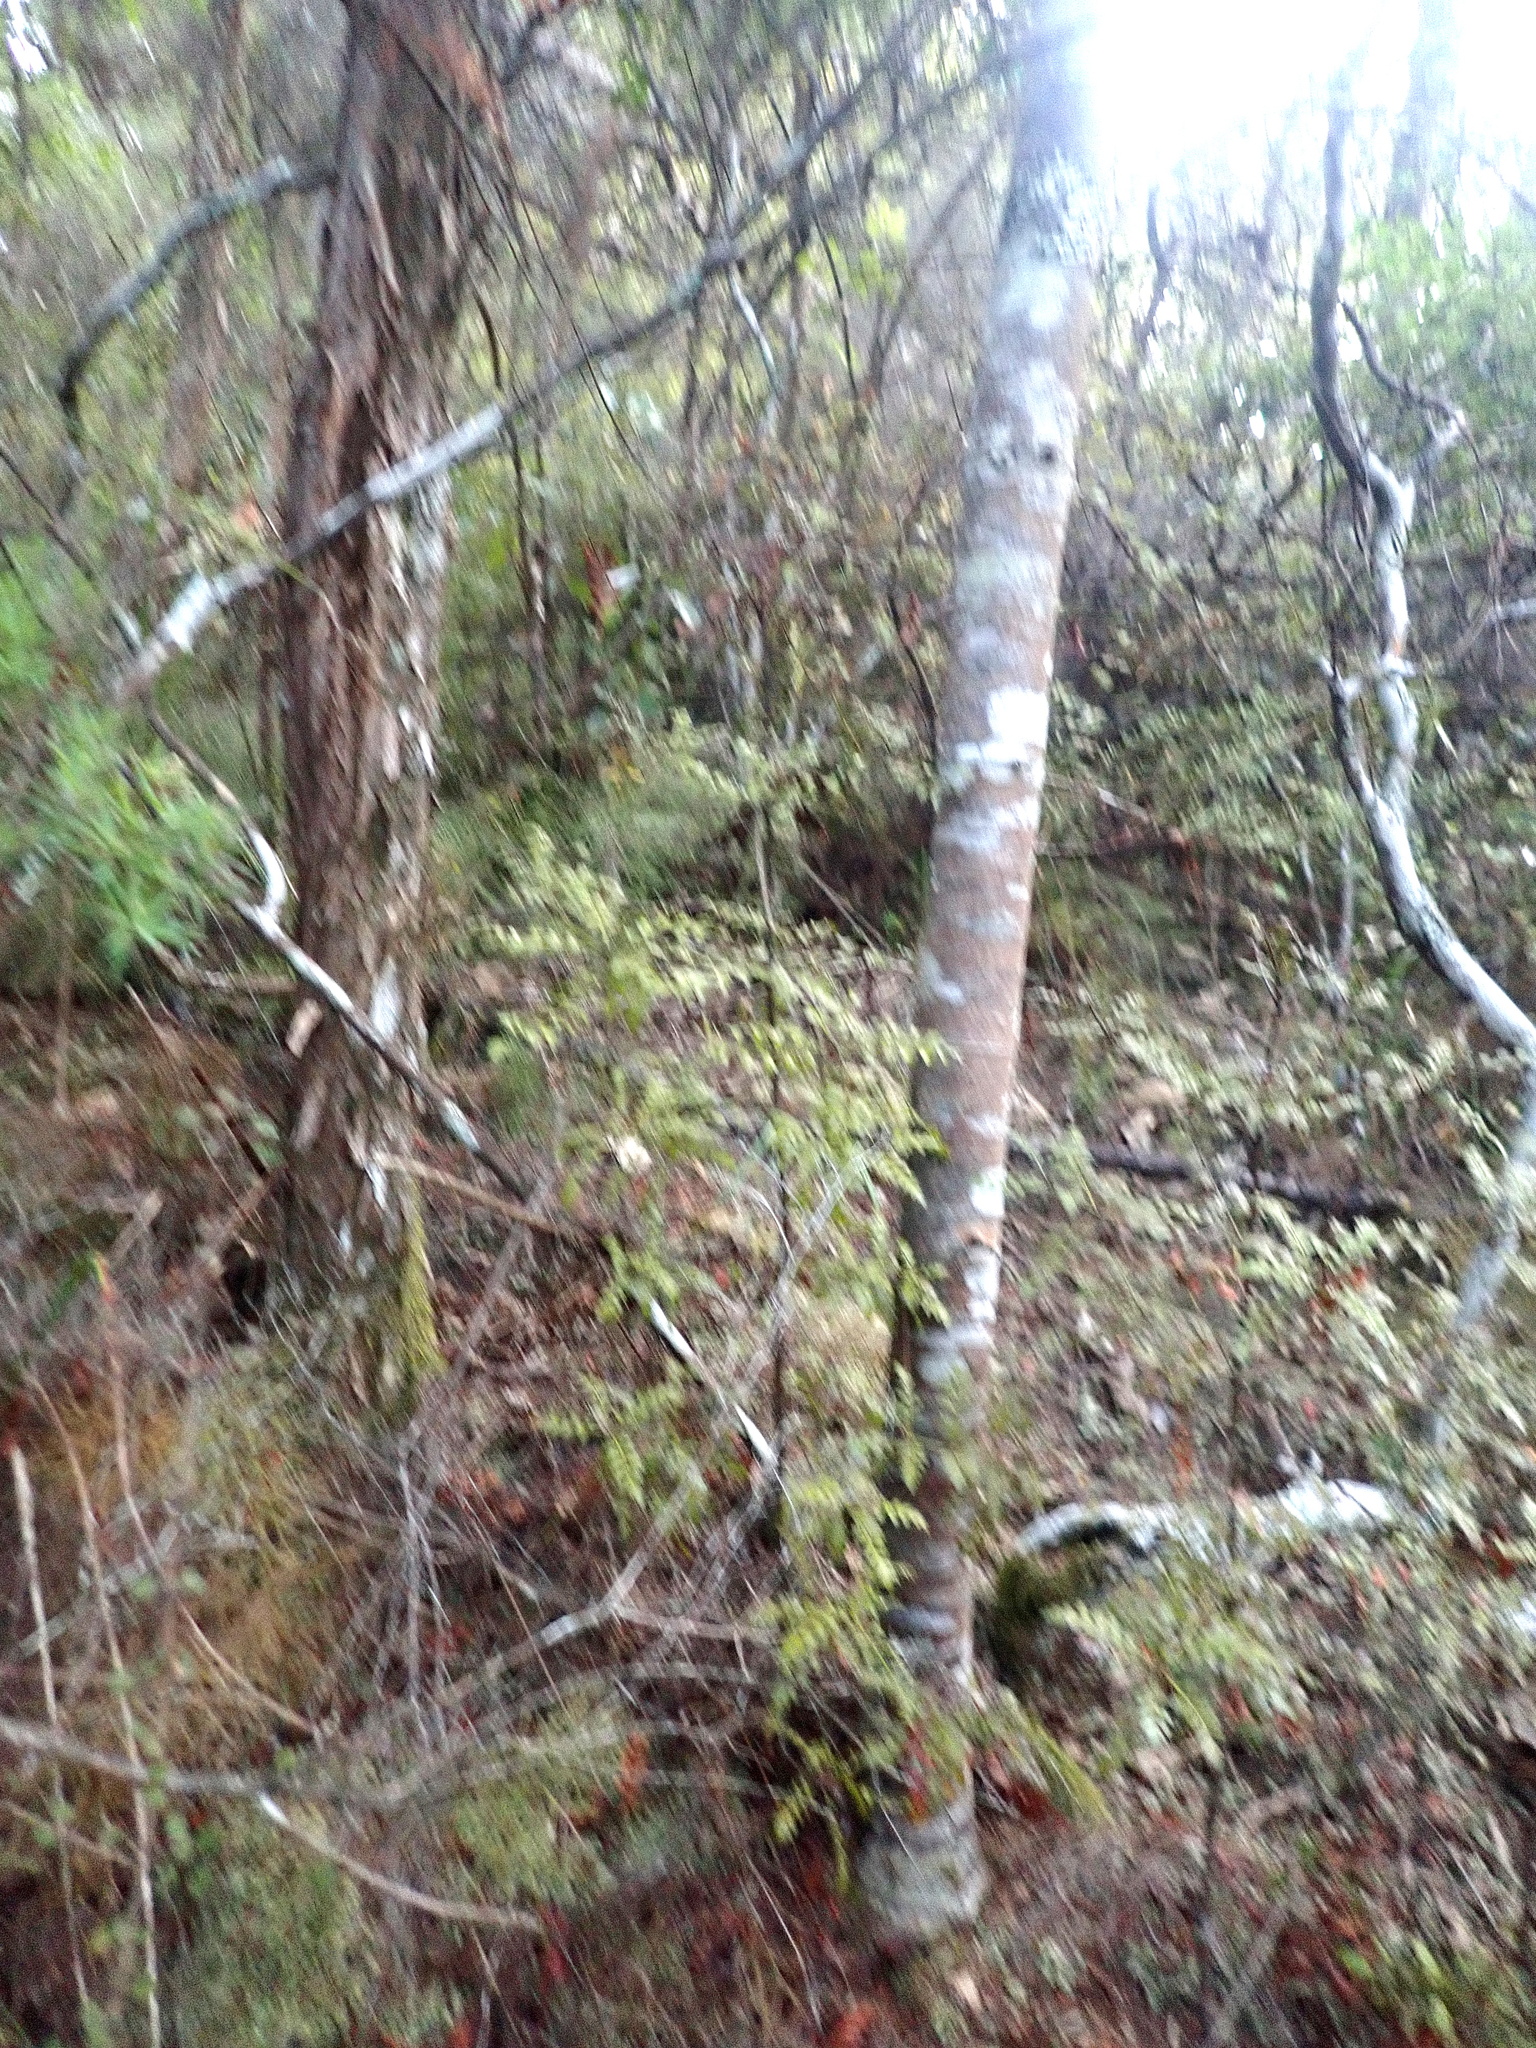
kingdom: Plantae
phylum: Tracheophyta
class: Pinopsida
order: Pinales
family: Phyllocladaceae
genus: Phyllocladus
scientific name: Phyllocladus trichomanoides
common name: Celery pine
